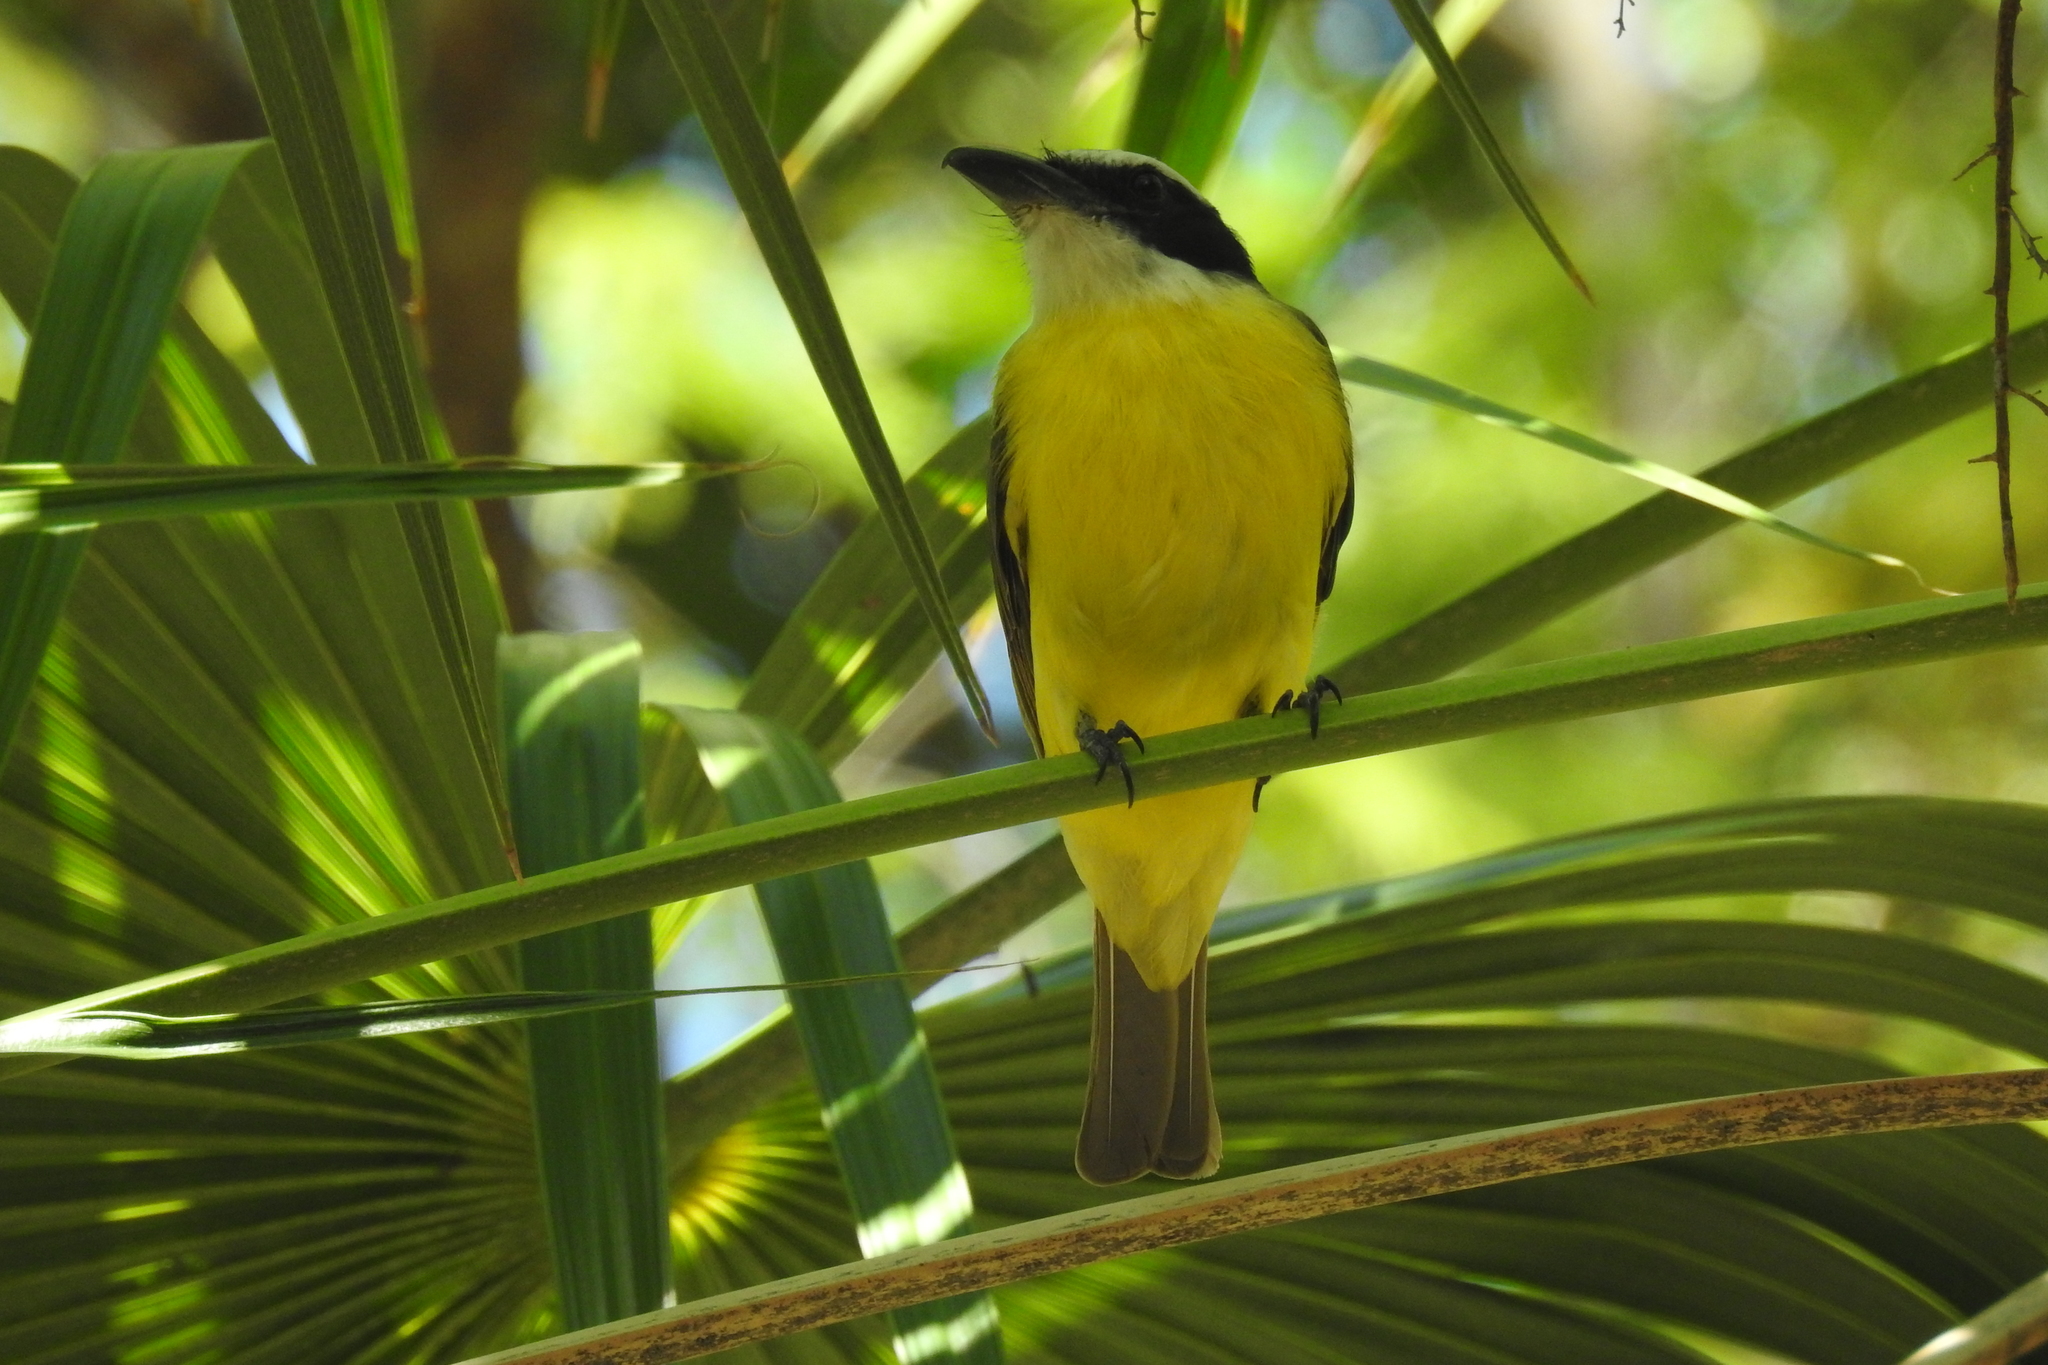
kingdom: Animalia
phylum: Chordata
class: Aves
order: Passeriformes
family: Tyrannidae
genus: Pitangus
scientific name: Pitangus sulphuratus
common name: Great kiskadee
